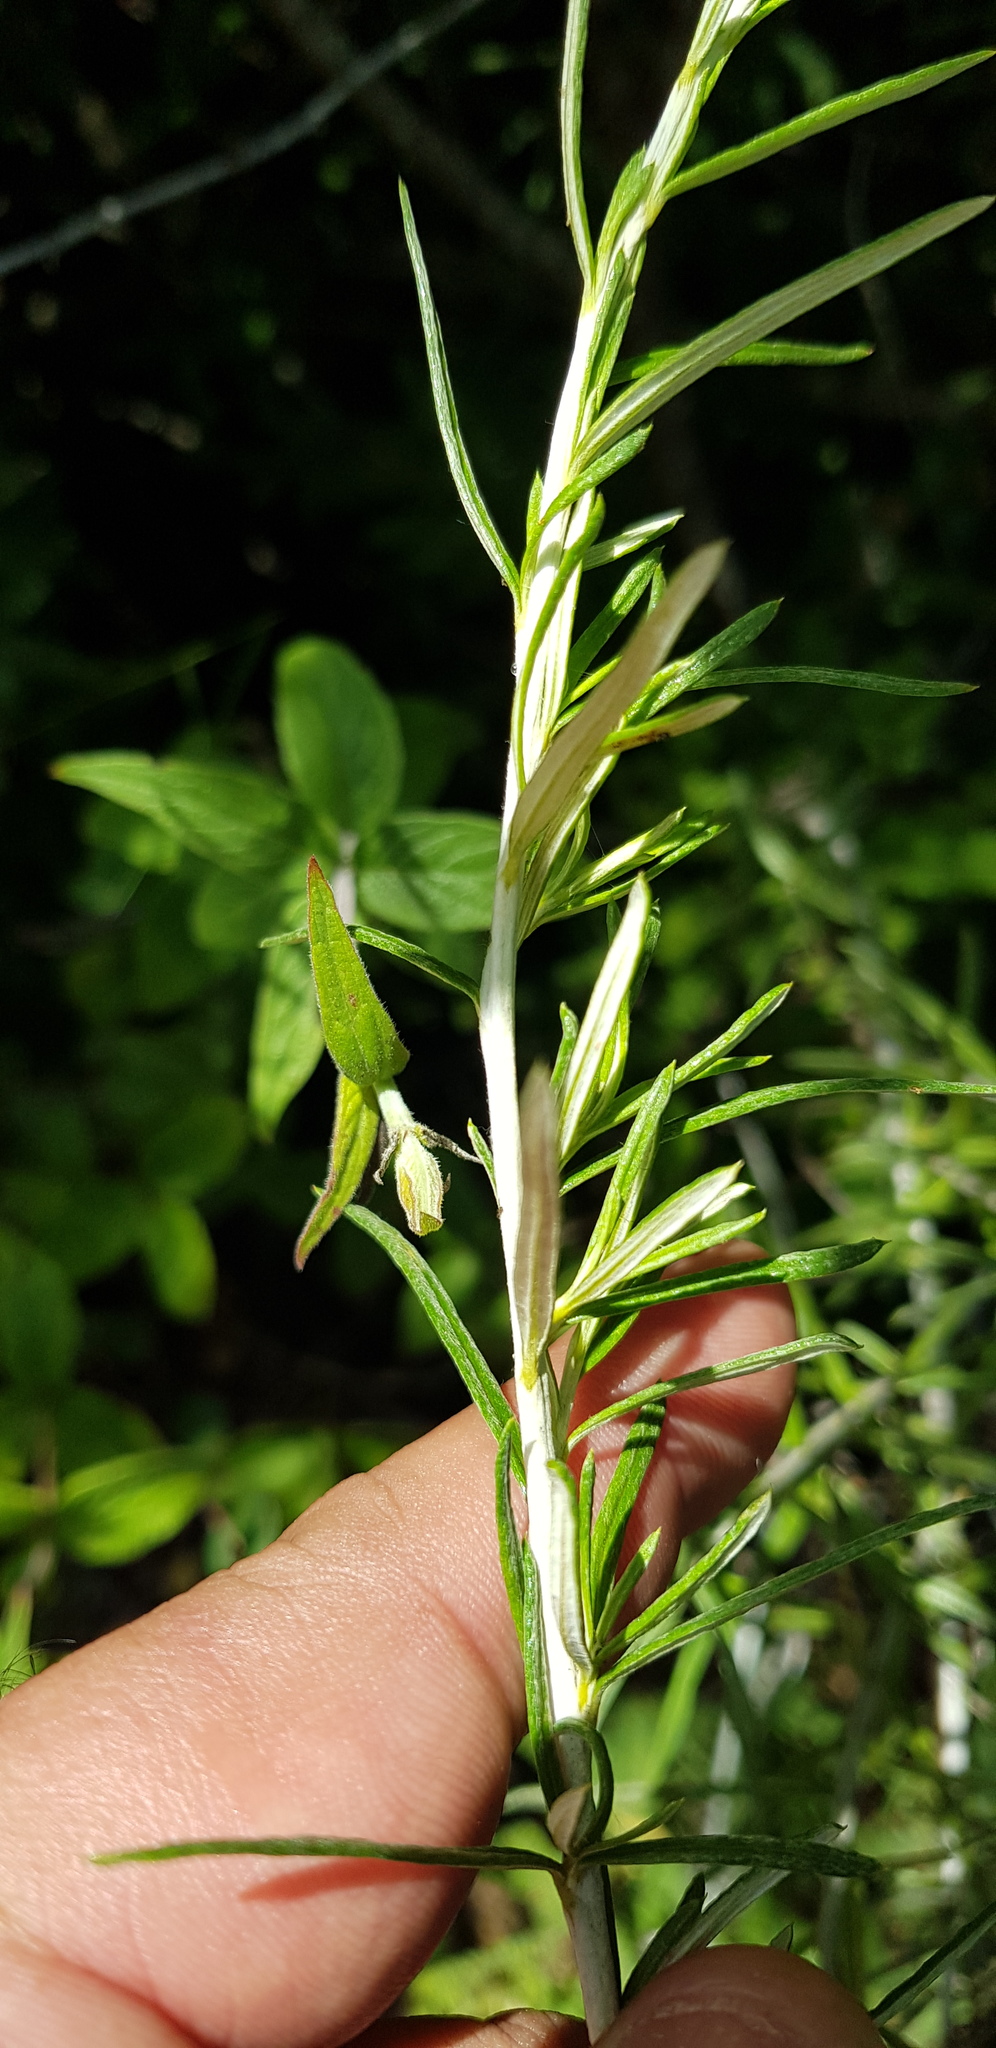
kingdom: Plantae
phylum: Tracheophyta
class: Magnoliopsida
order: Asterales
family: Asteraceae
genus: Aztecaster
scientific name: Aztecaster pyramidatus
